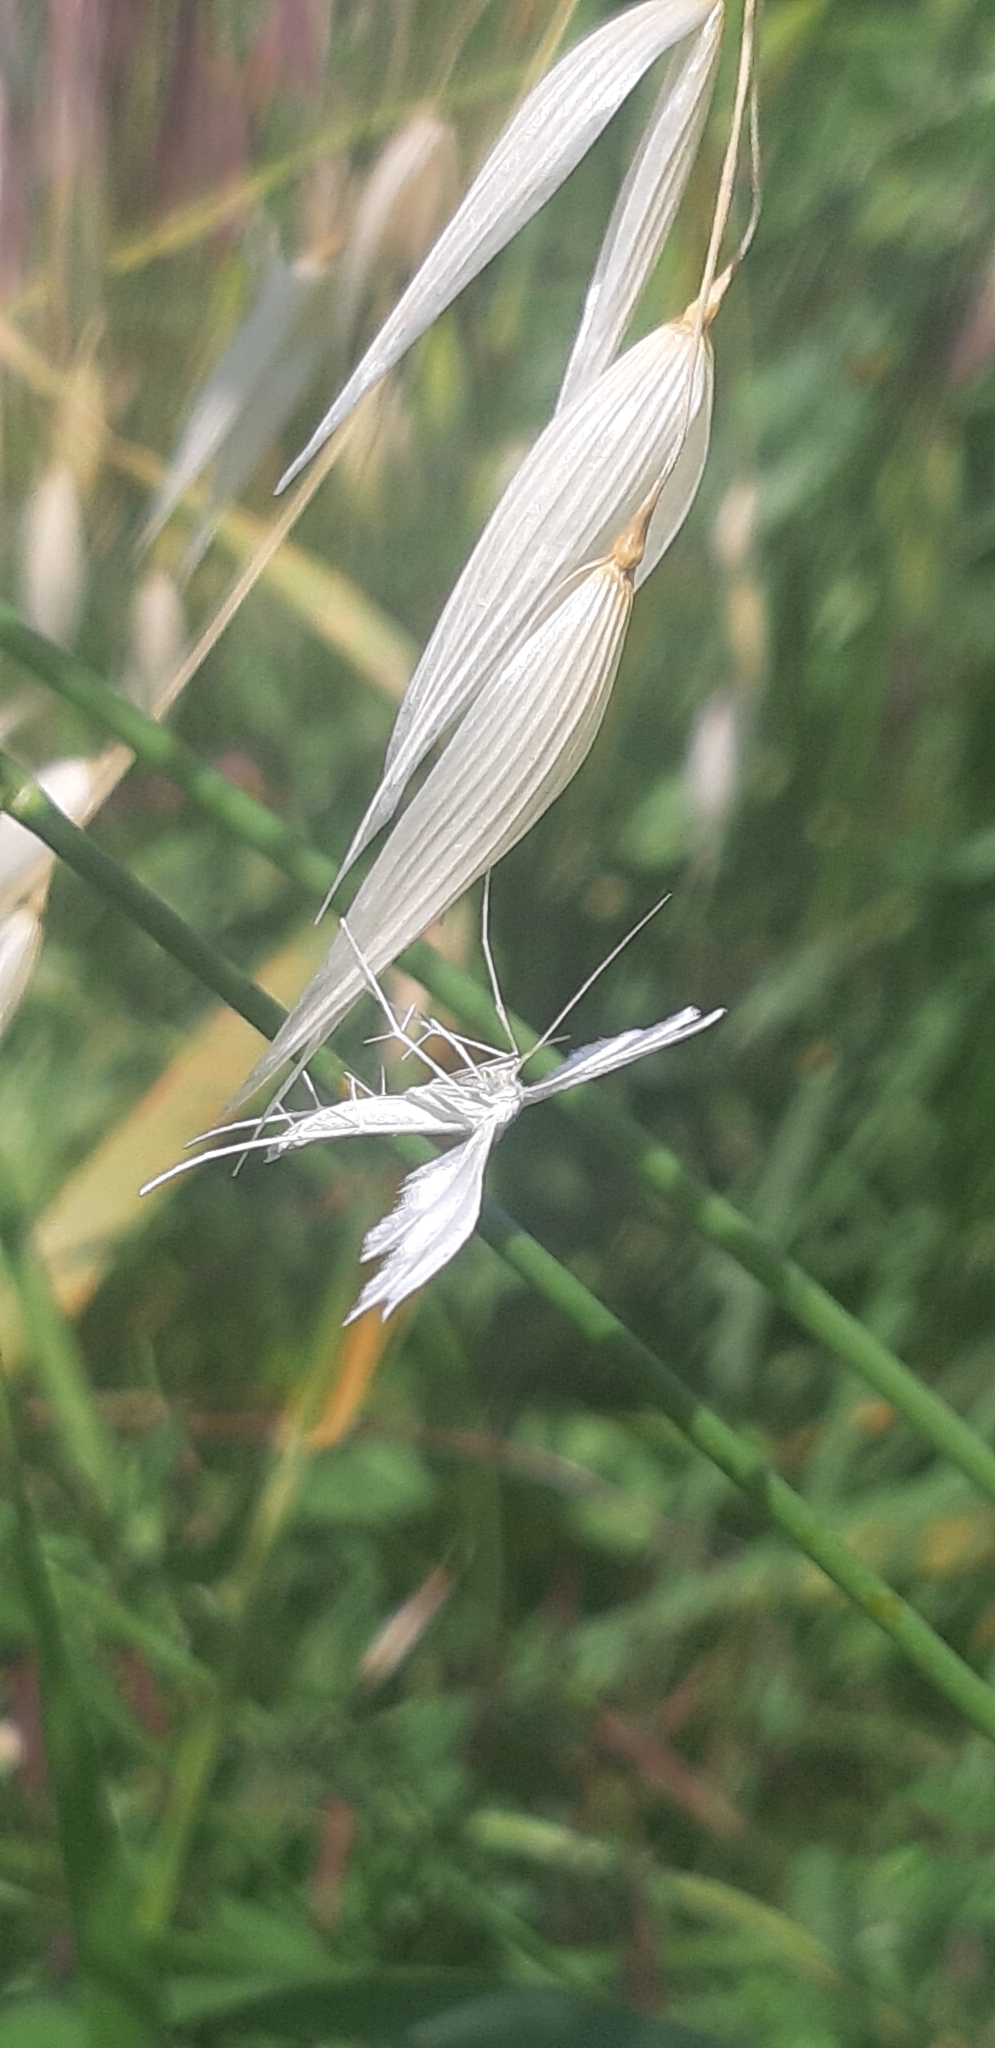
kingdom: Animalia
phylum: Arthropoda
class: Insecta
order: Lepidoptera
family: Pterophoridae
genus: Pterophorus
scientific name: Pterophorus pentadactyla
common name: White plume moth
